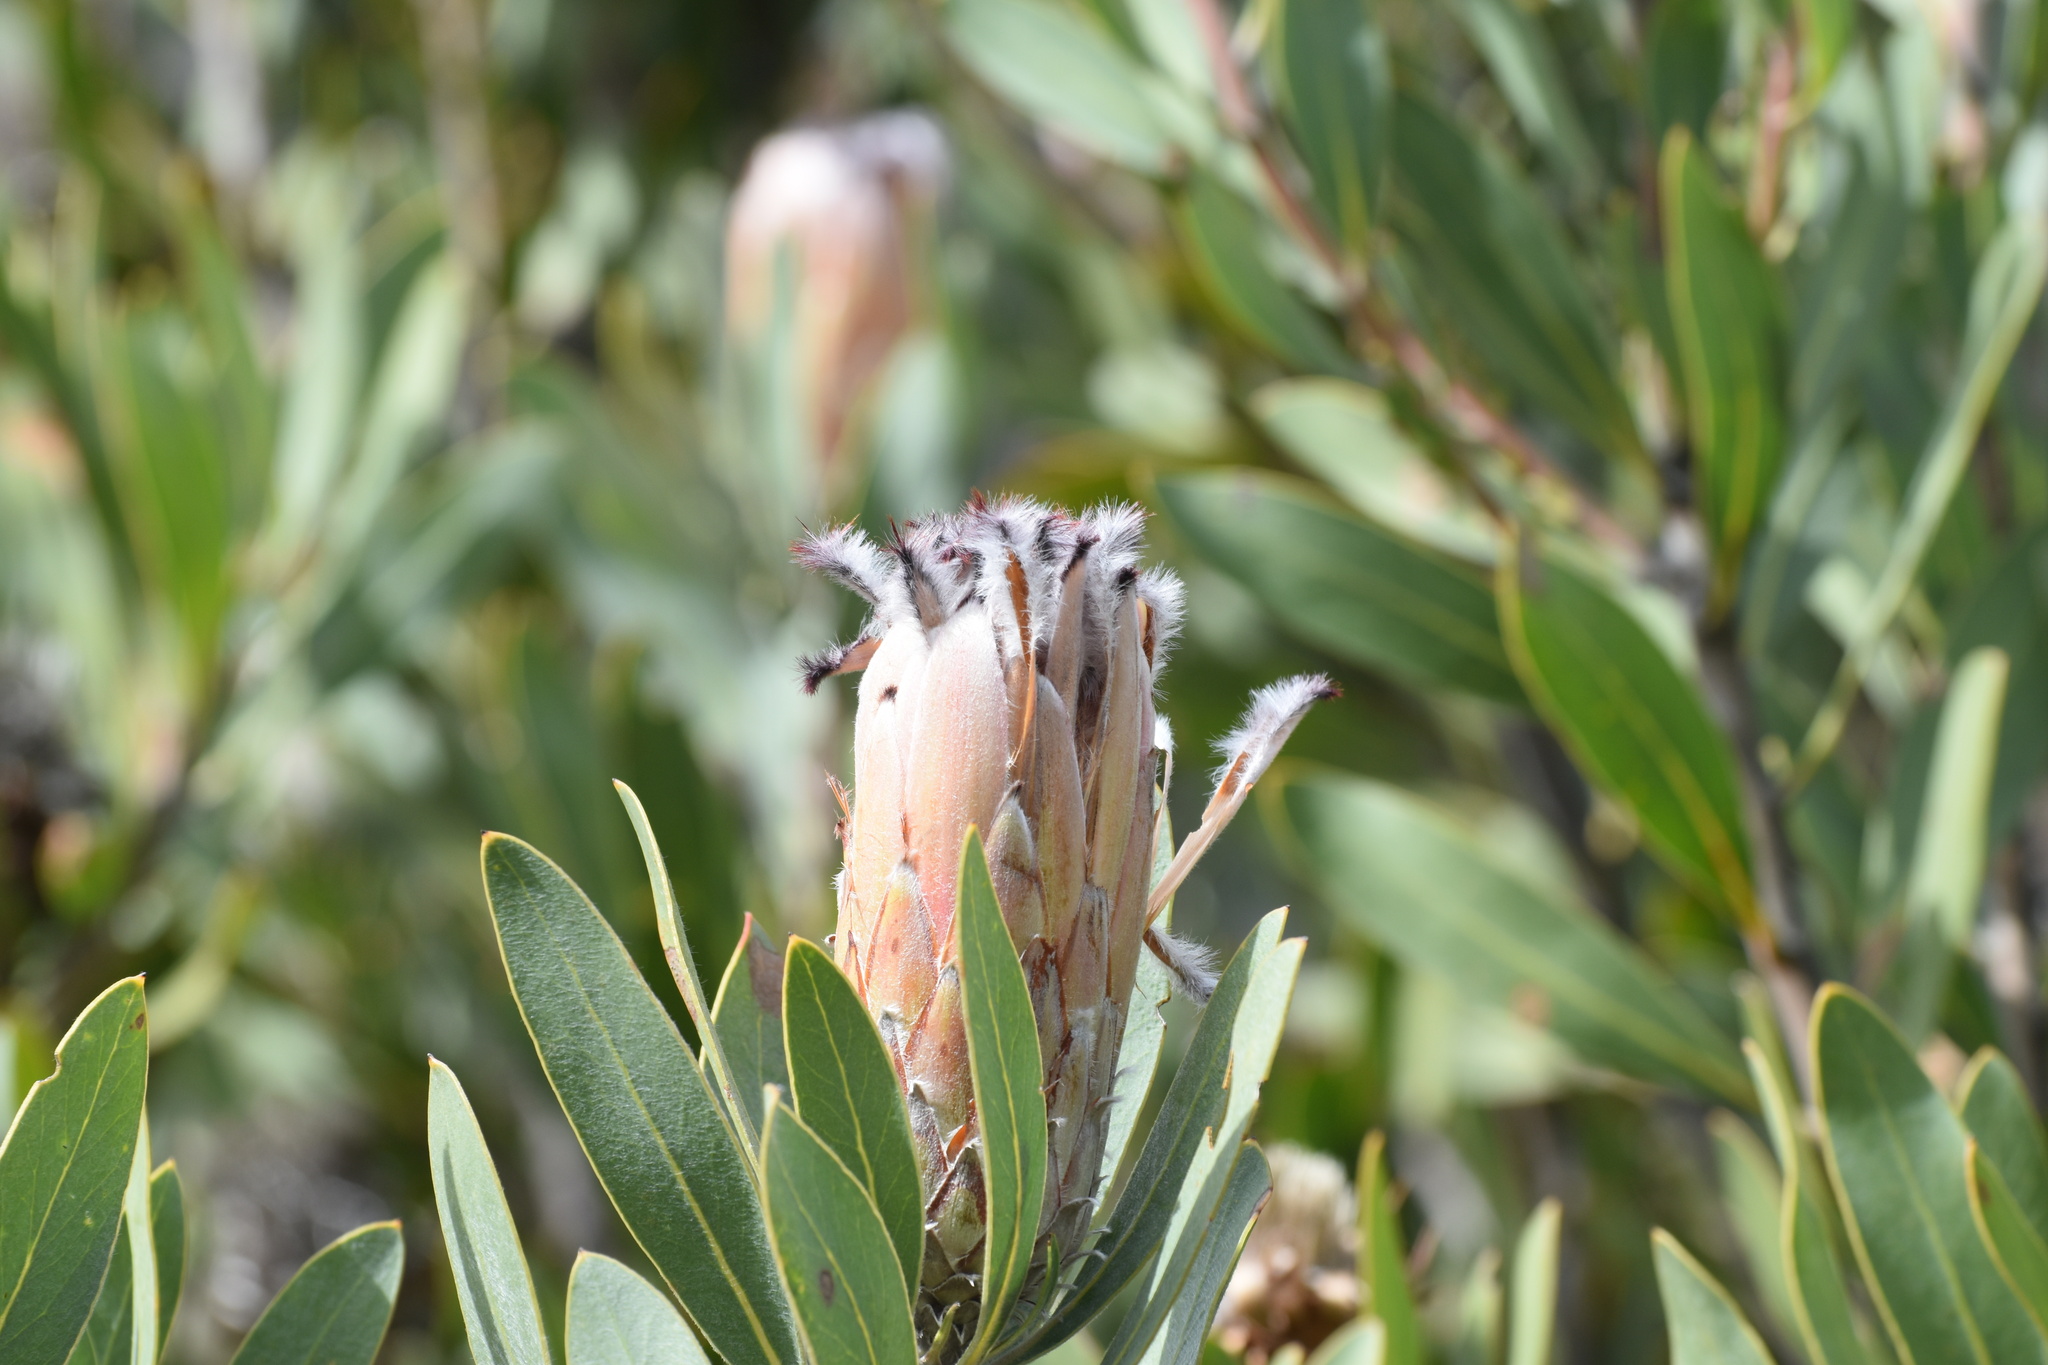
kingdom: Plantae
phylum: Tracheophyta
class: Magnoliopsida
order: Proteales
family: Proteaceae
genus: Protea
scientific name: Protea laurifolia
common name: Grey-leaf sugarbsh
